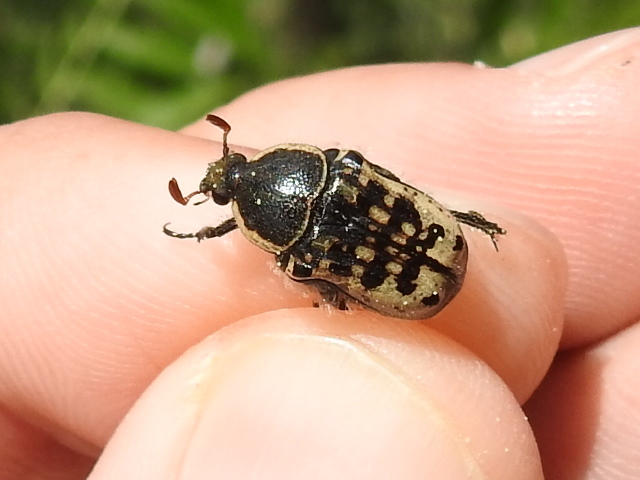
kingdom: Animalia
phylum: Arthropoda
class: Insecta
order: Coleoptera
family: Scarabaeidae
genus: Euphoria
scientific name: Euphoria kernii
